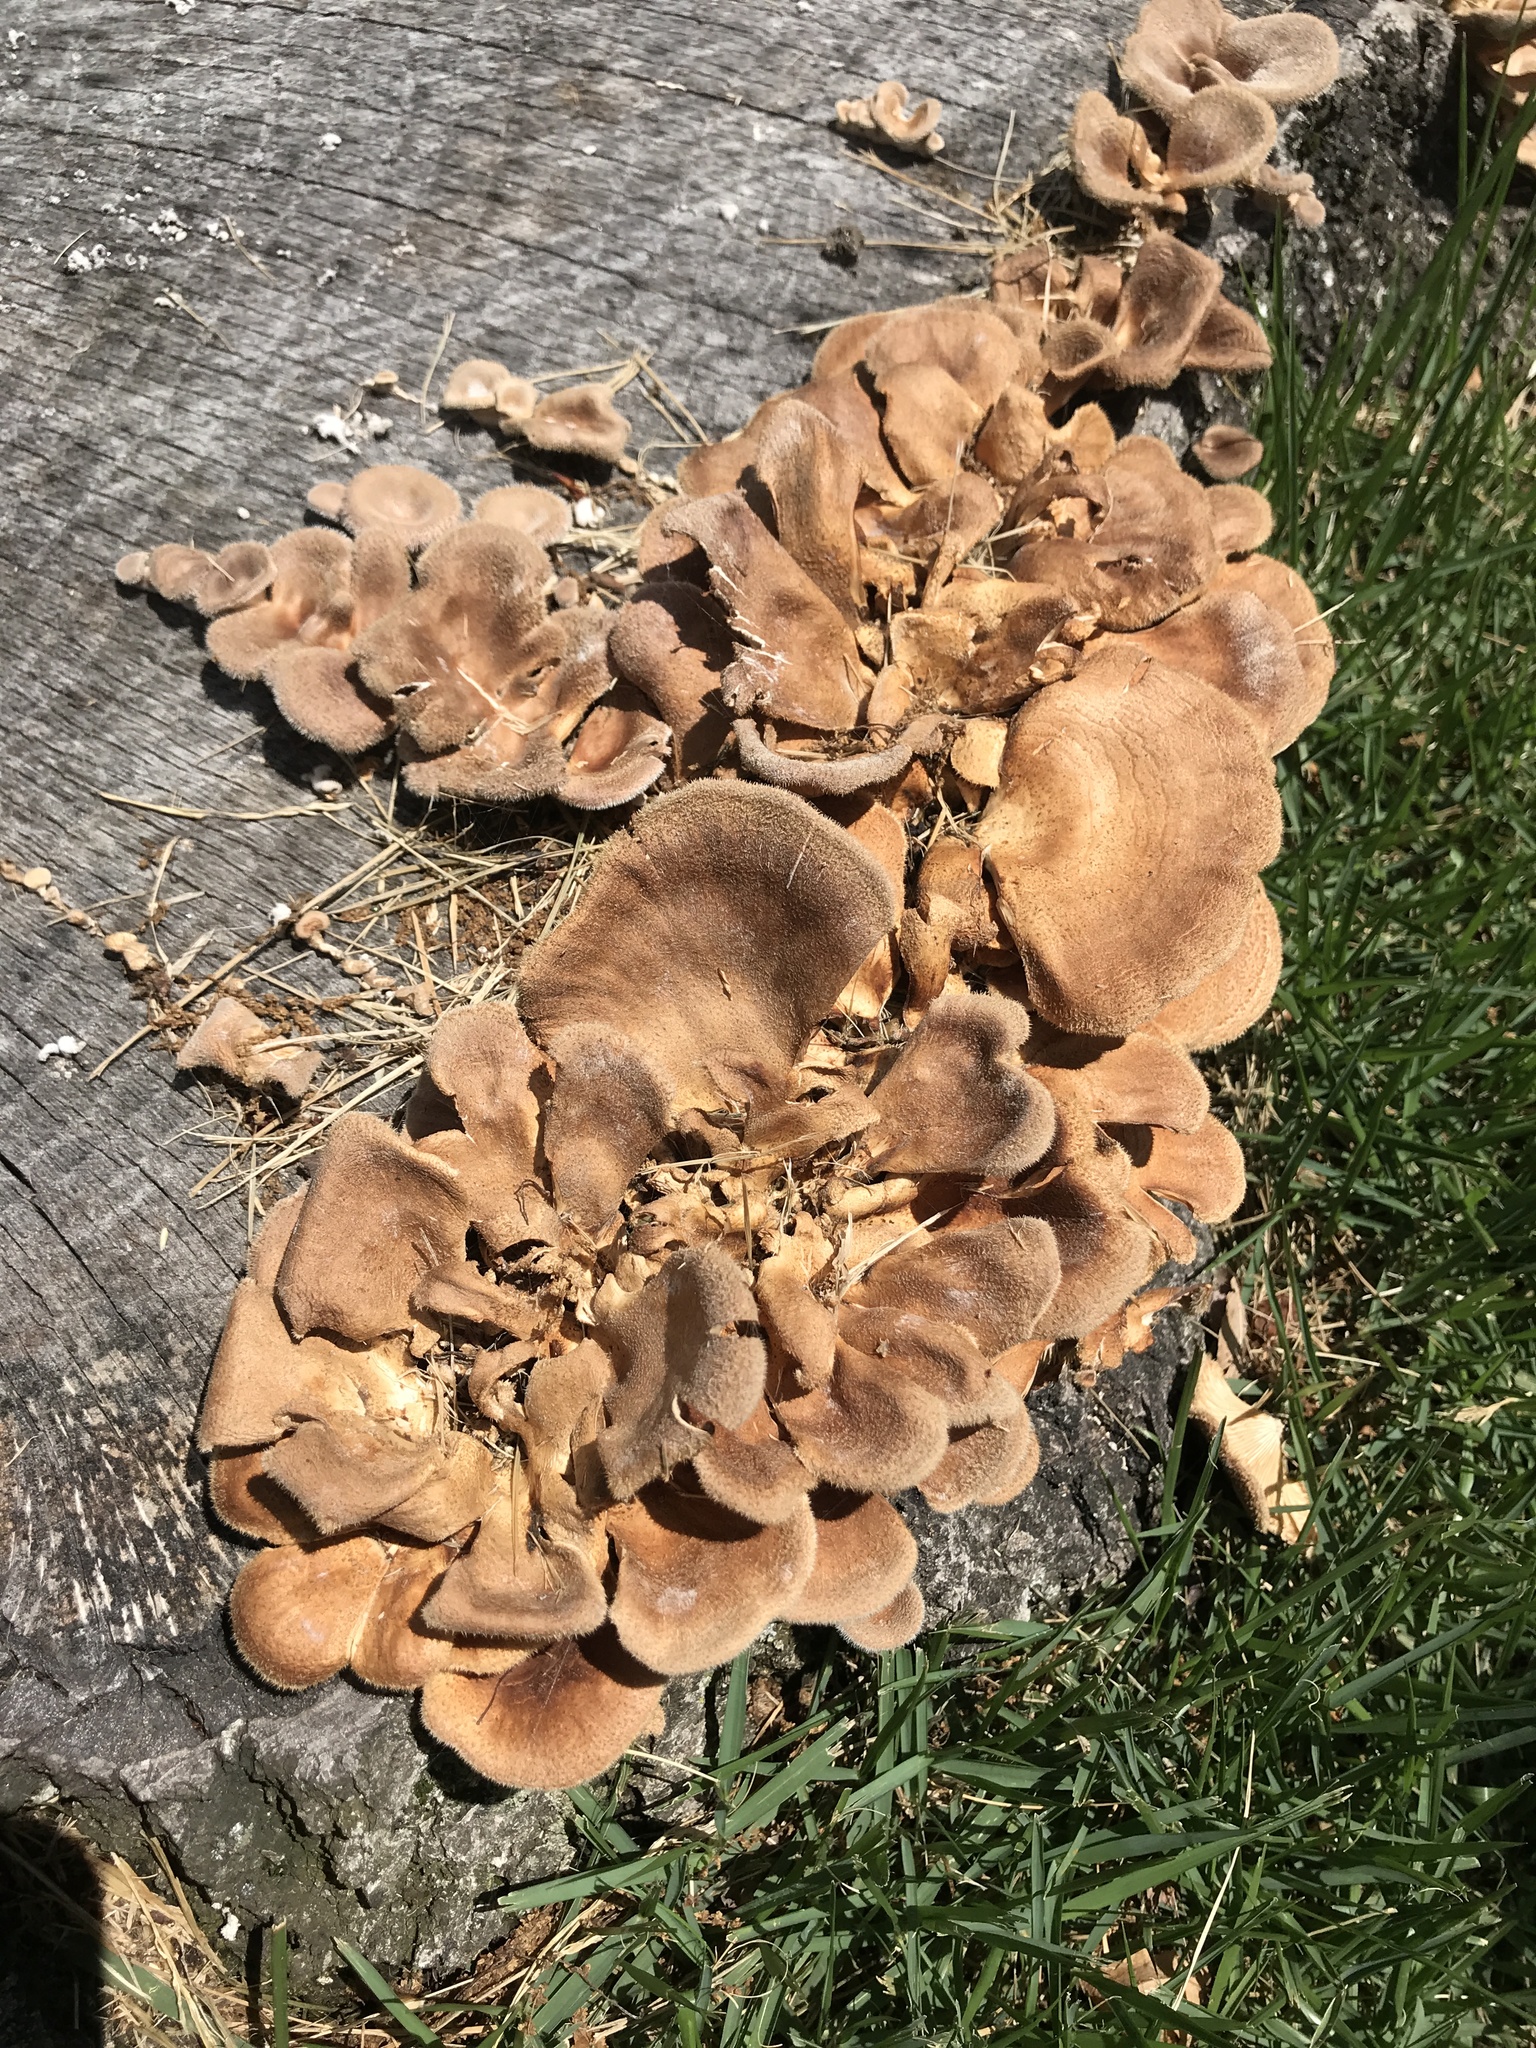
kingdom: Fungi
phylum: Basidiomycota
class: Agaricomycetes
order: Polyporales
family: Panaceae
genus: Panus
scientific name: Panus neostrigosus
